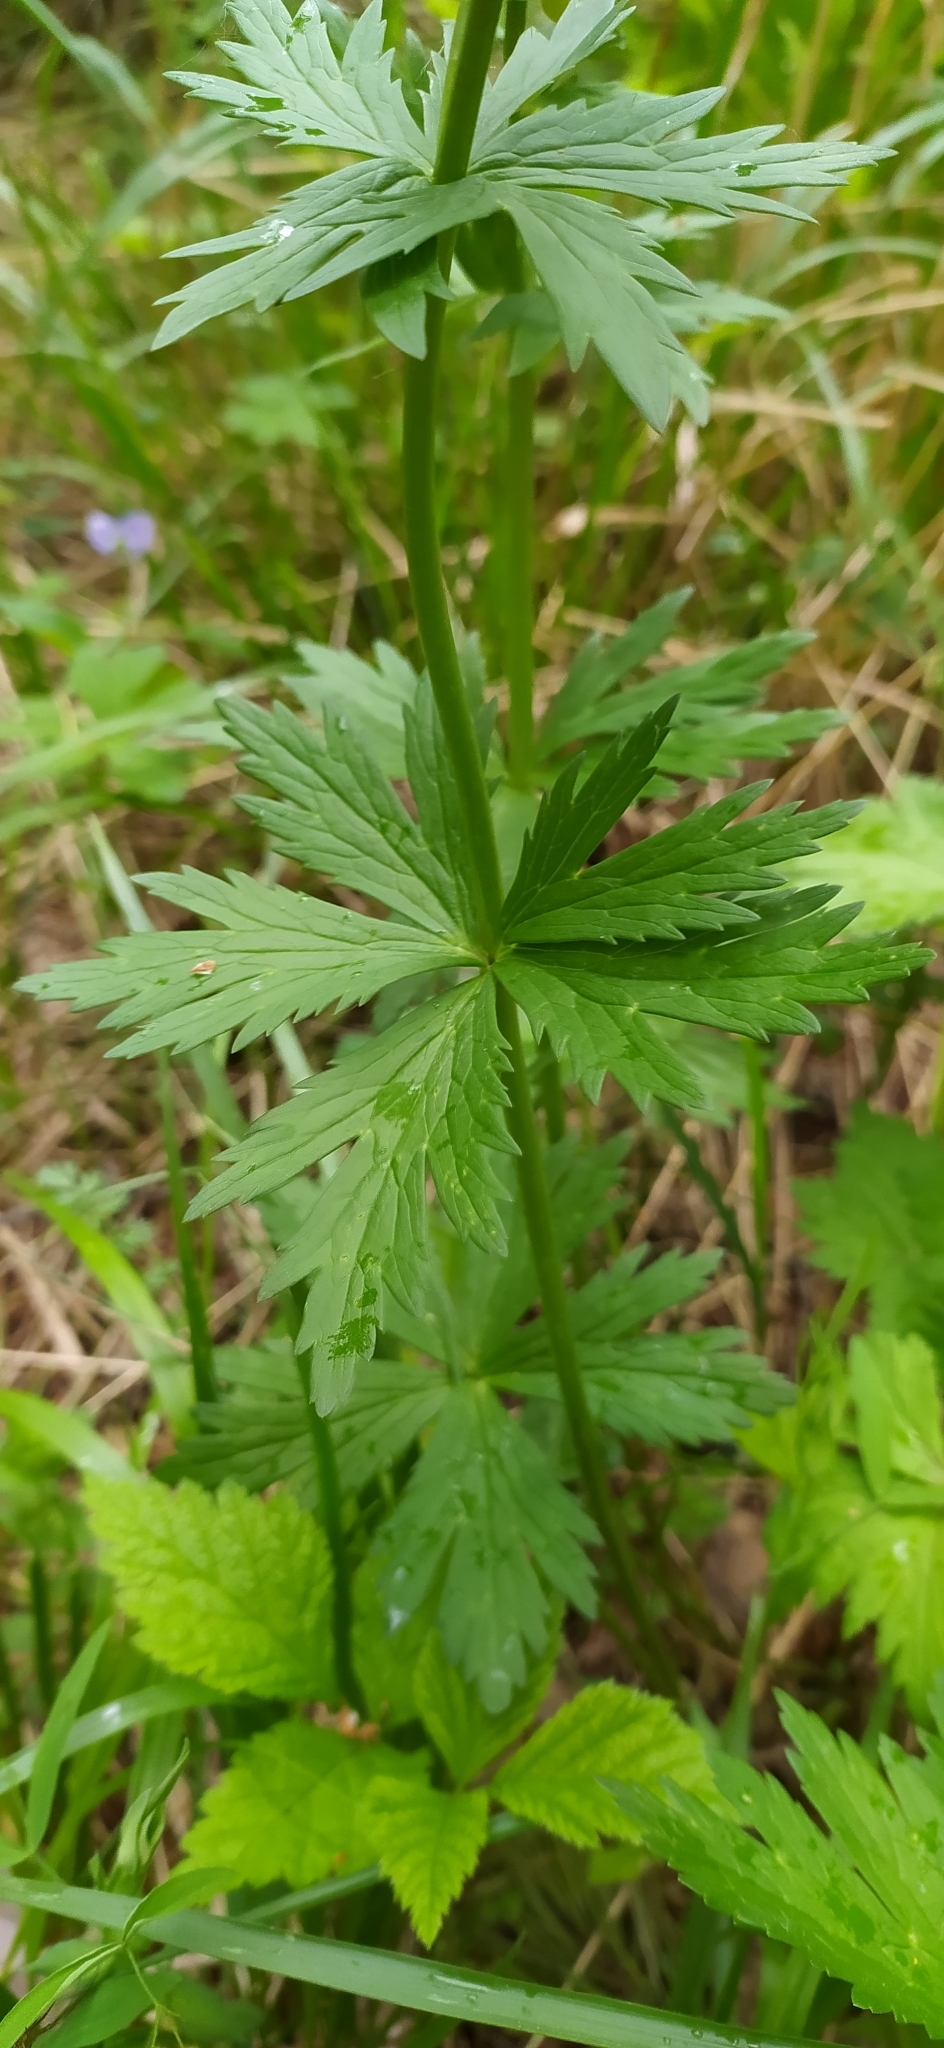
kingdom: Plantae
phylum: Tracheophyta
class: Magnoliopsida
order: Ranunculales
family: Ranunculaceae
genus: Trollius
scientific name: Trollius europaeus
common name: European globeflower
